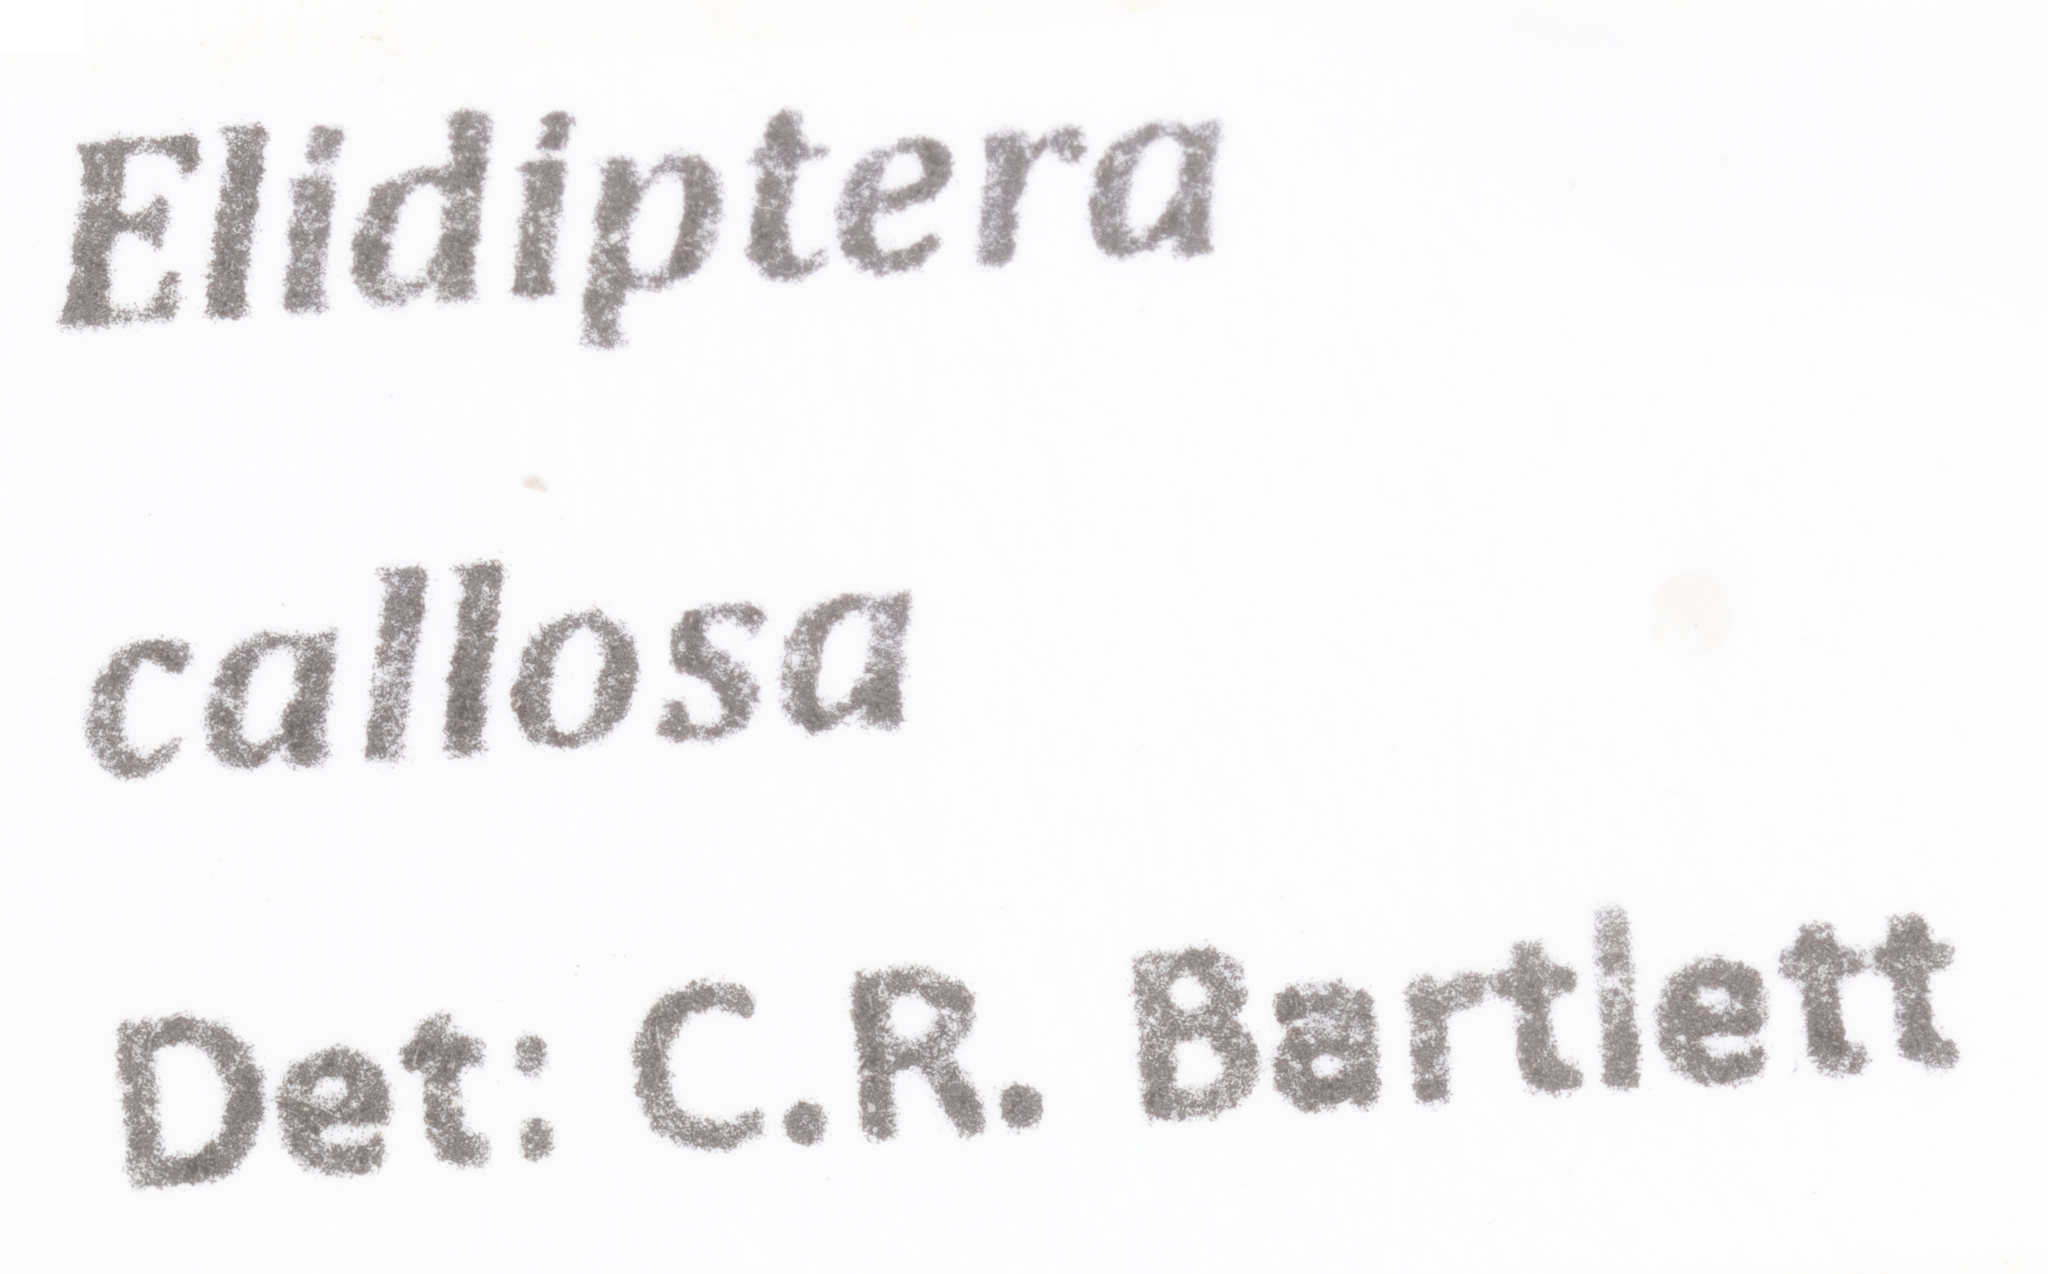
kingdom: Animalia
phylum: Arthropoda
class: Insecta
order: Hemiptera
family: Achilidae
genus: Elidiptera
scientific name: Elidiptera callosa
